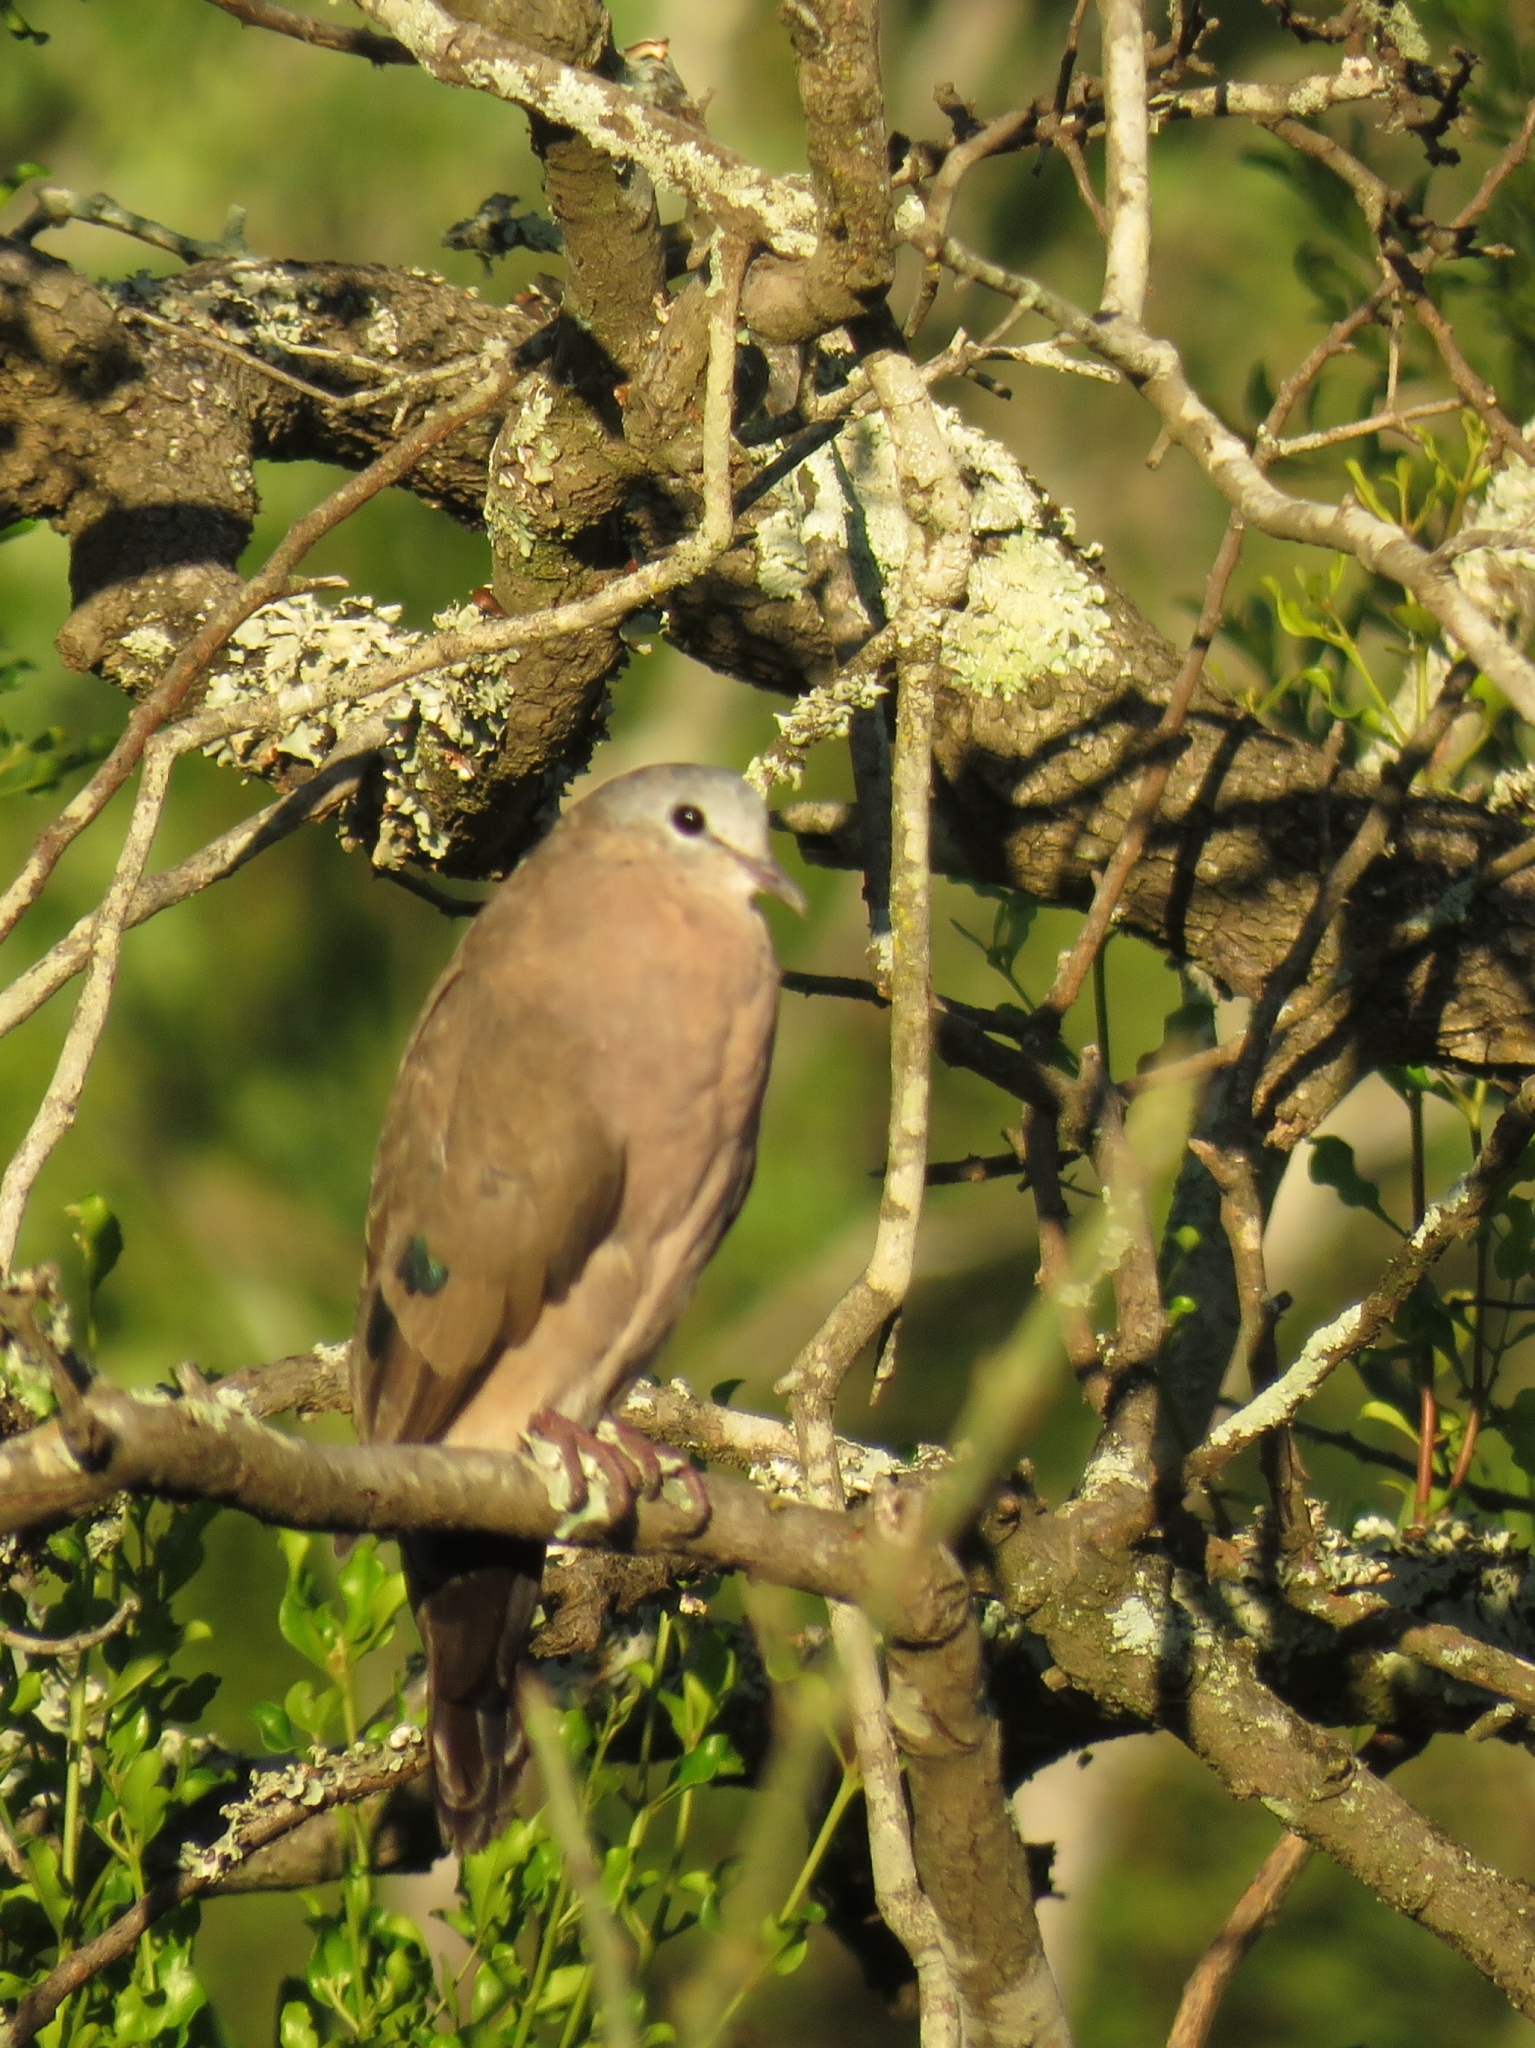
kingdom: Animalia
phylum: Chordata
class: Aves
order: Columbiformes
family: Columbidae
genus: Turtur
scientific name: Turtur chalcospilos
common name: Emerald-spotted wood dove
